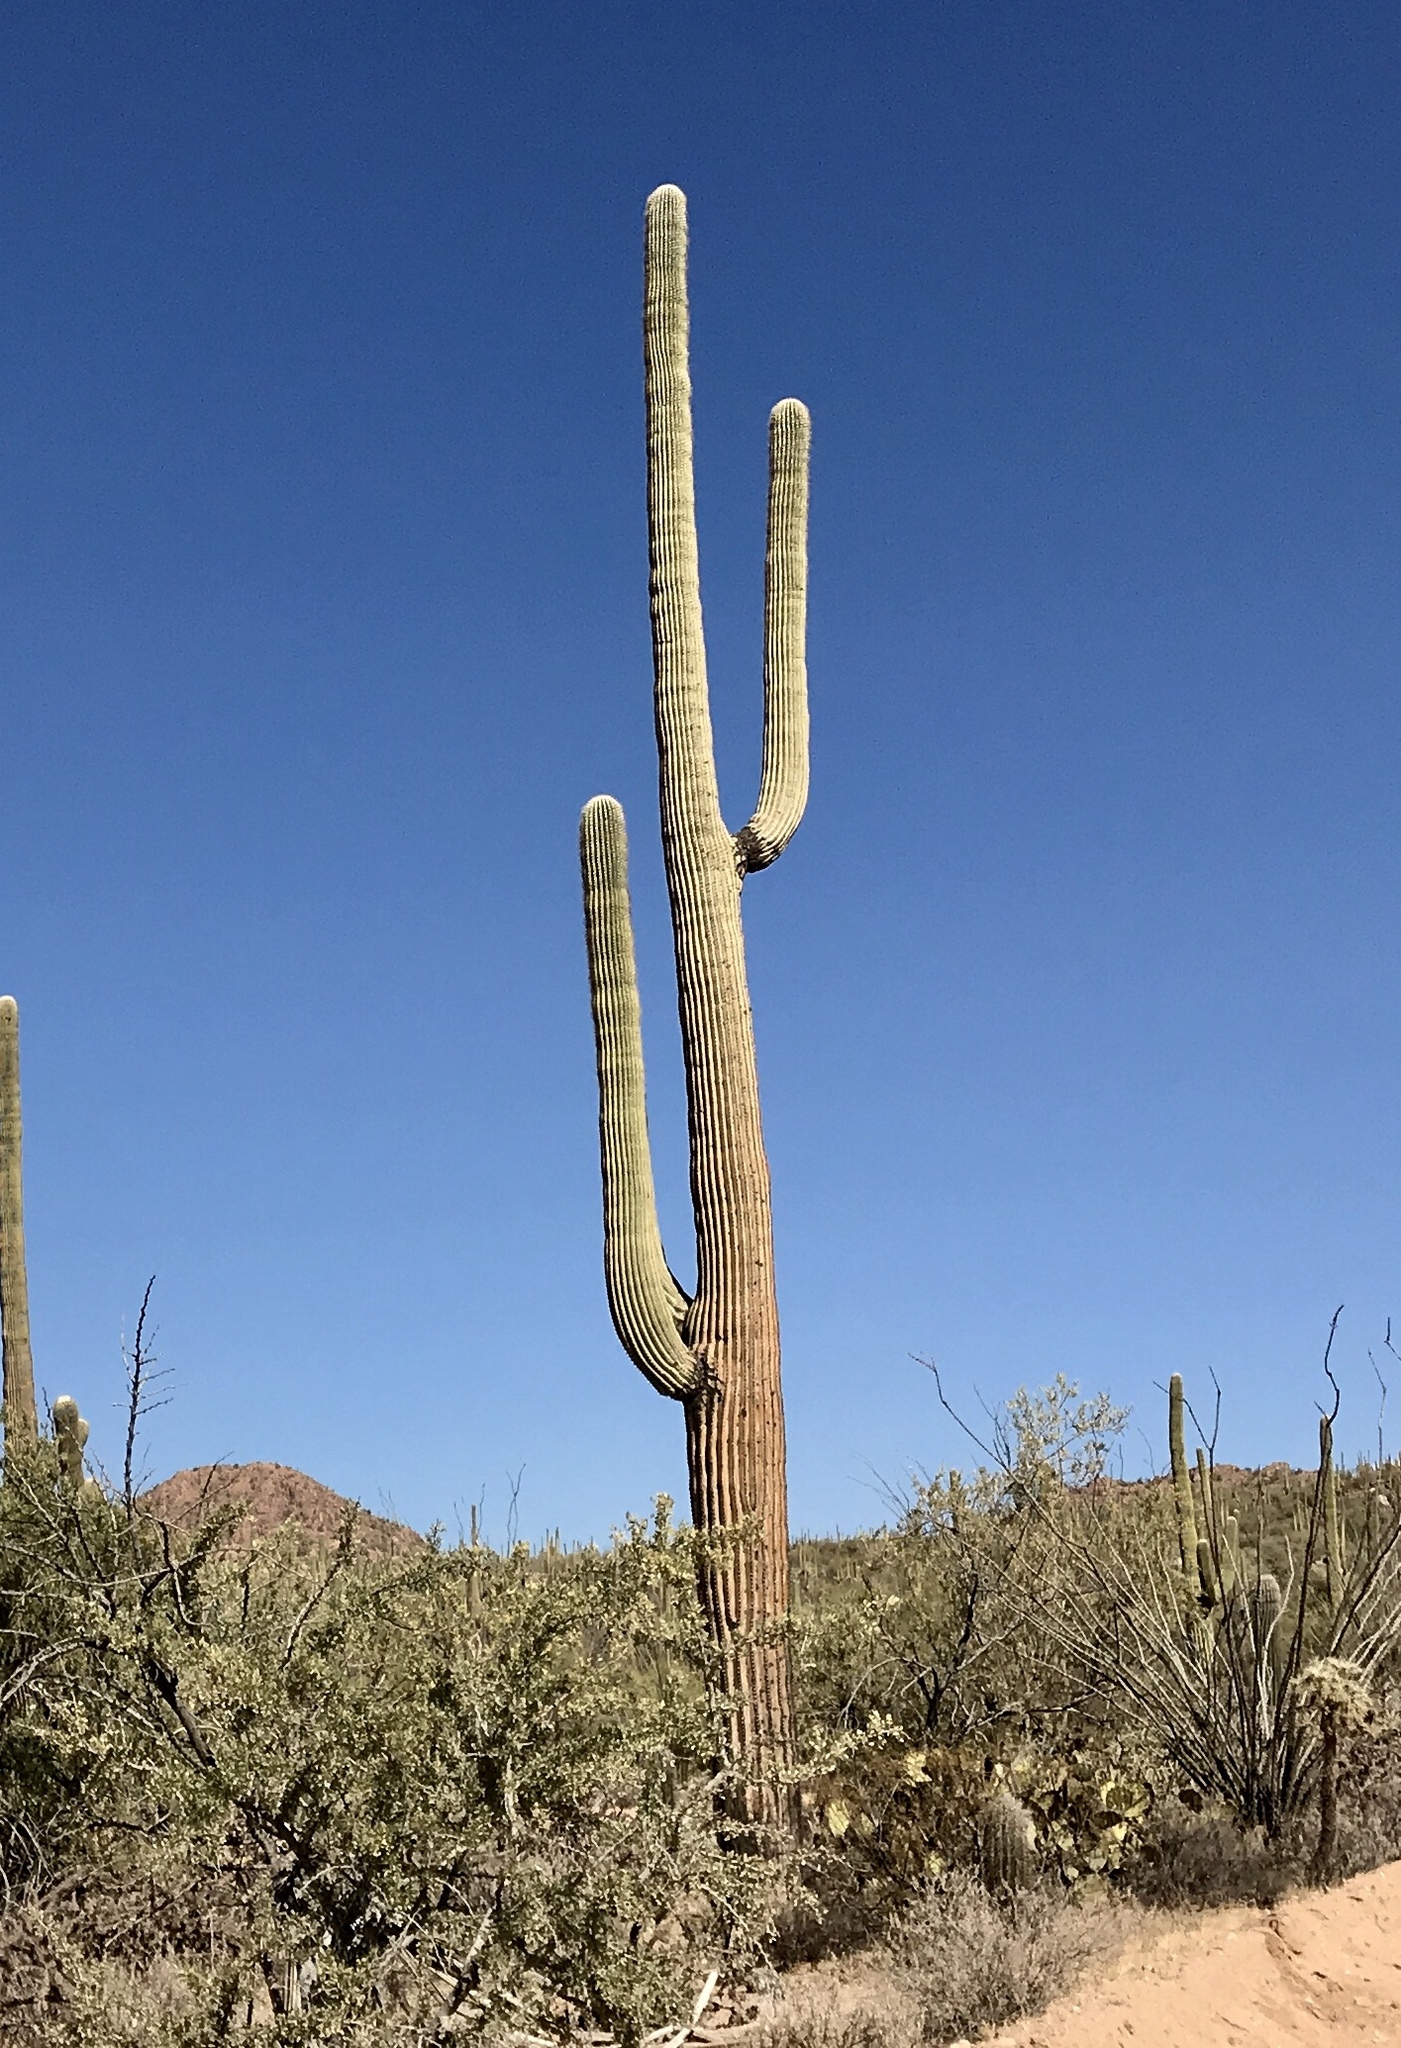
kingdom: Plantae
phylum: Tracheophyta
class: Magnoliopsida
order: Caryophyllales
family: Cactaceae
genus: Carnegiea
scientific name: Carnegiea gigantea
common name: Saguaro
